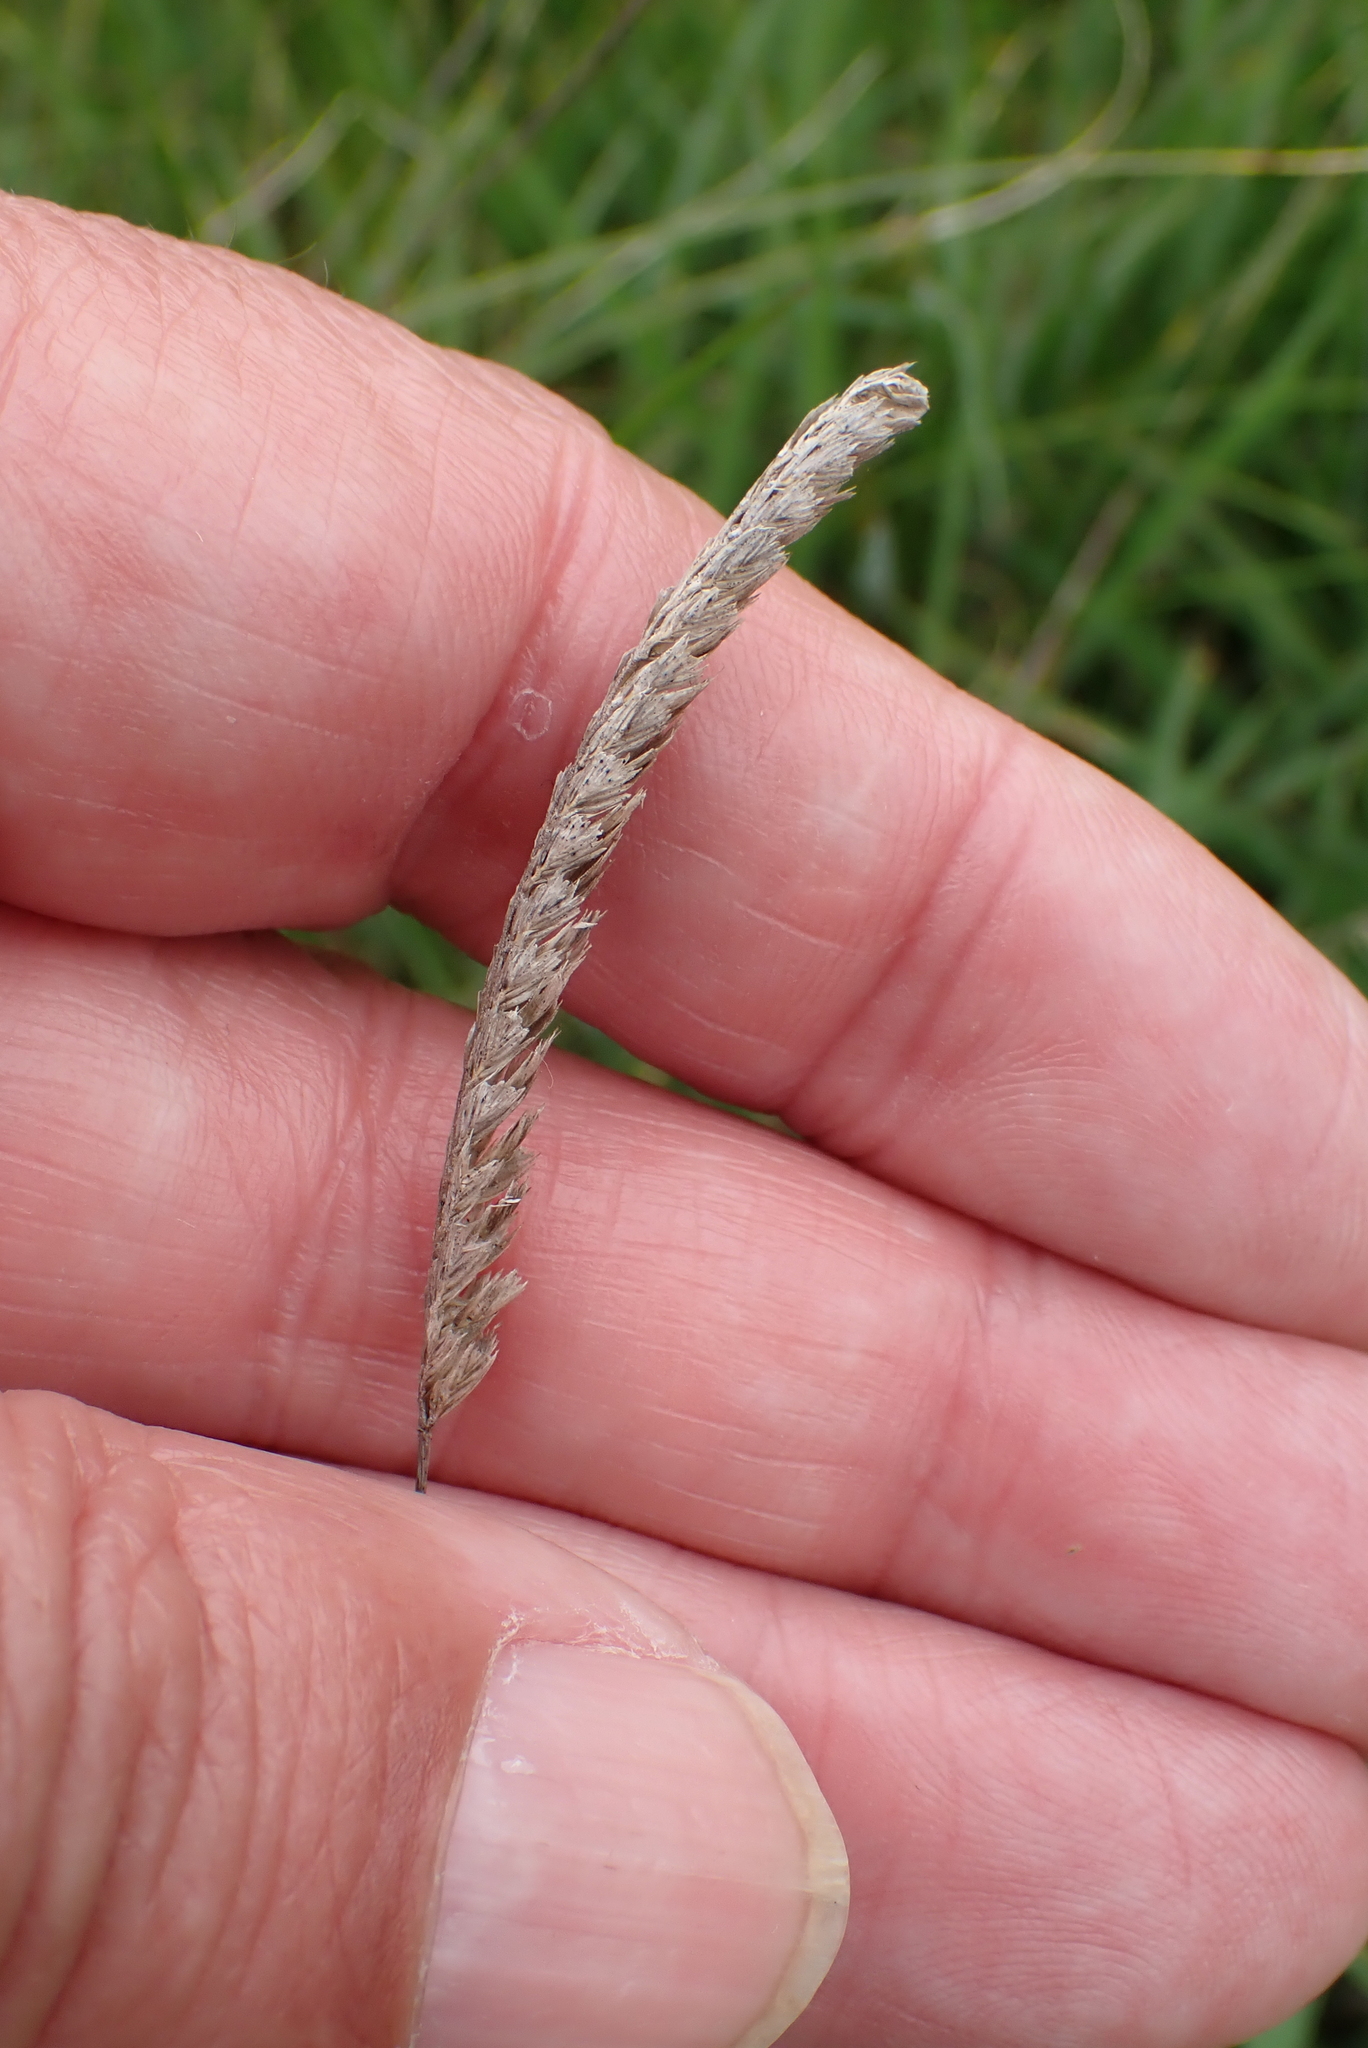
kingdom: Plantae
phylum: Tracheophyta
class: Liliopsida
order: Poales
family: Poaceae
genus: Cynosurus
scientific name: Cynosurus cristatus
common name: Crested dog's-tail
